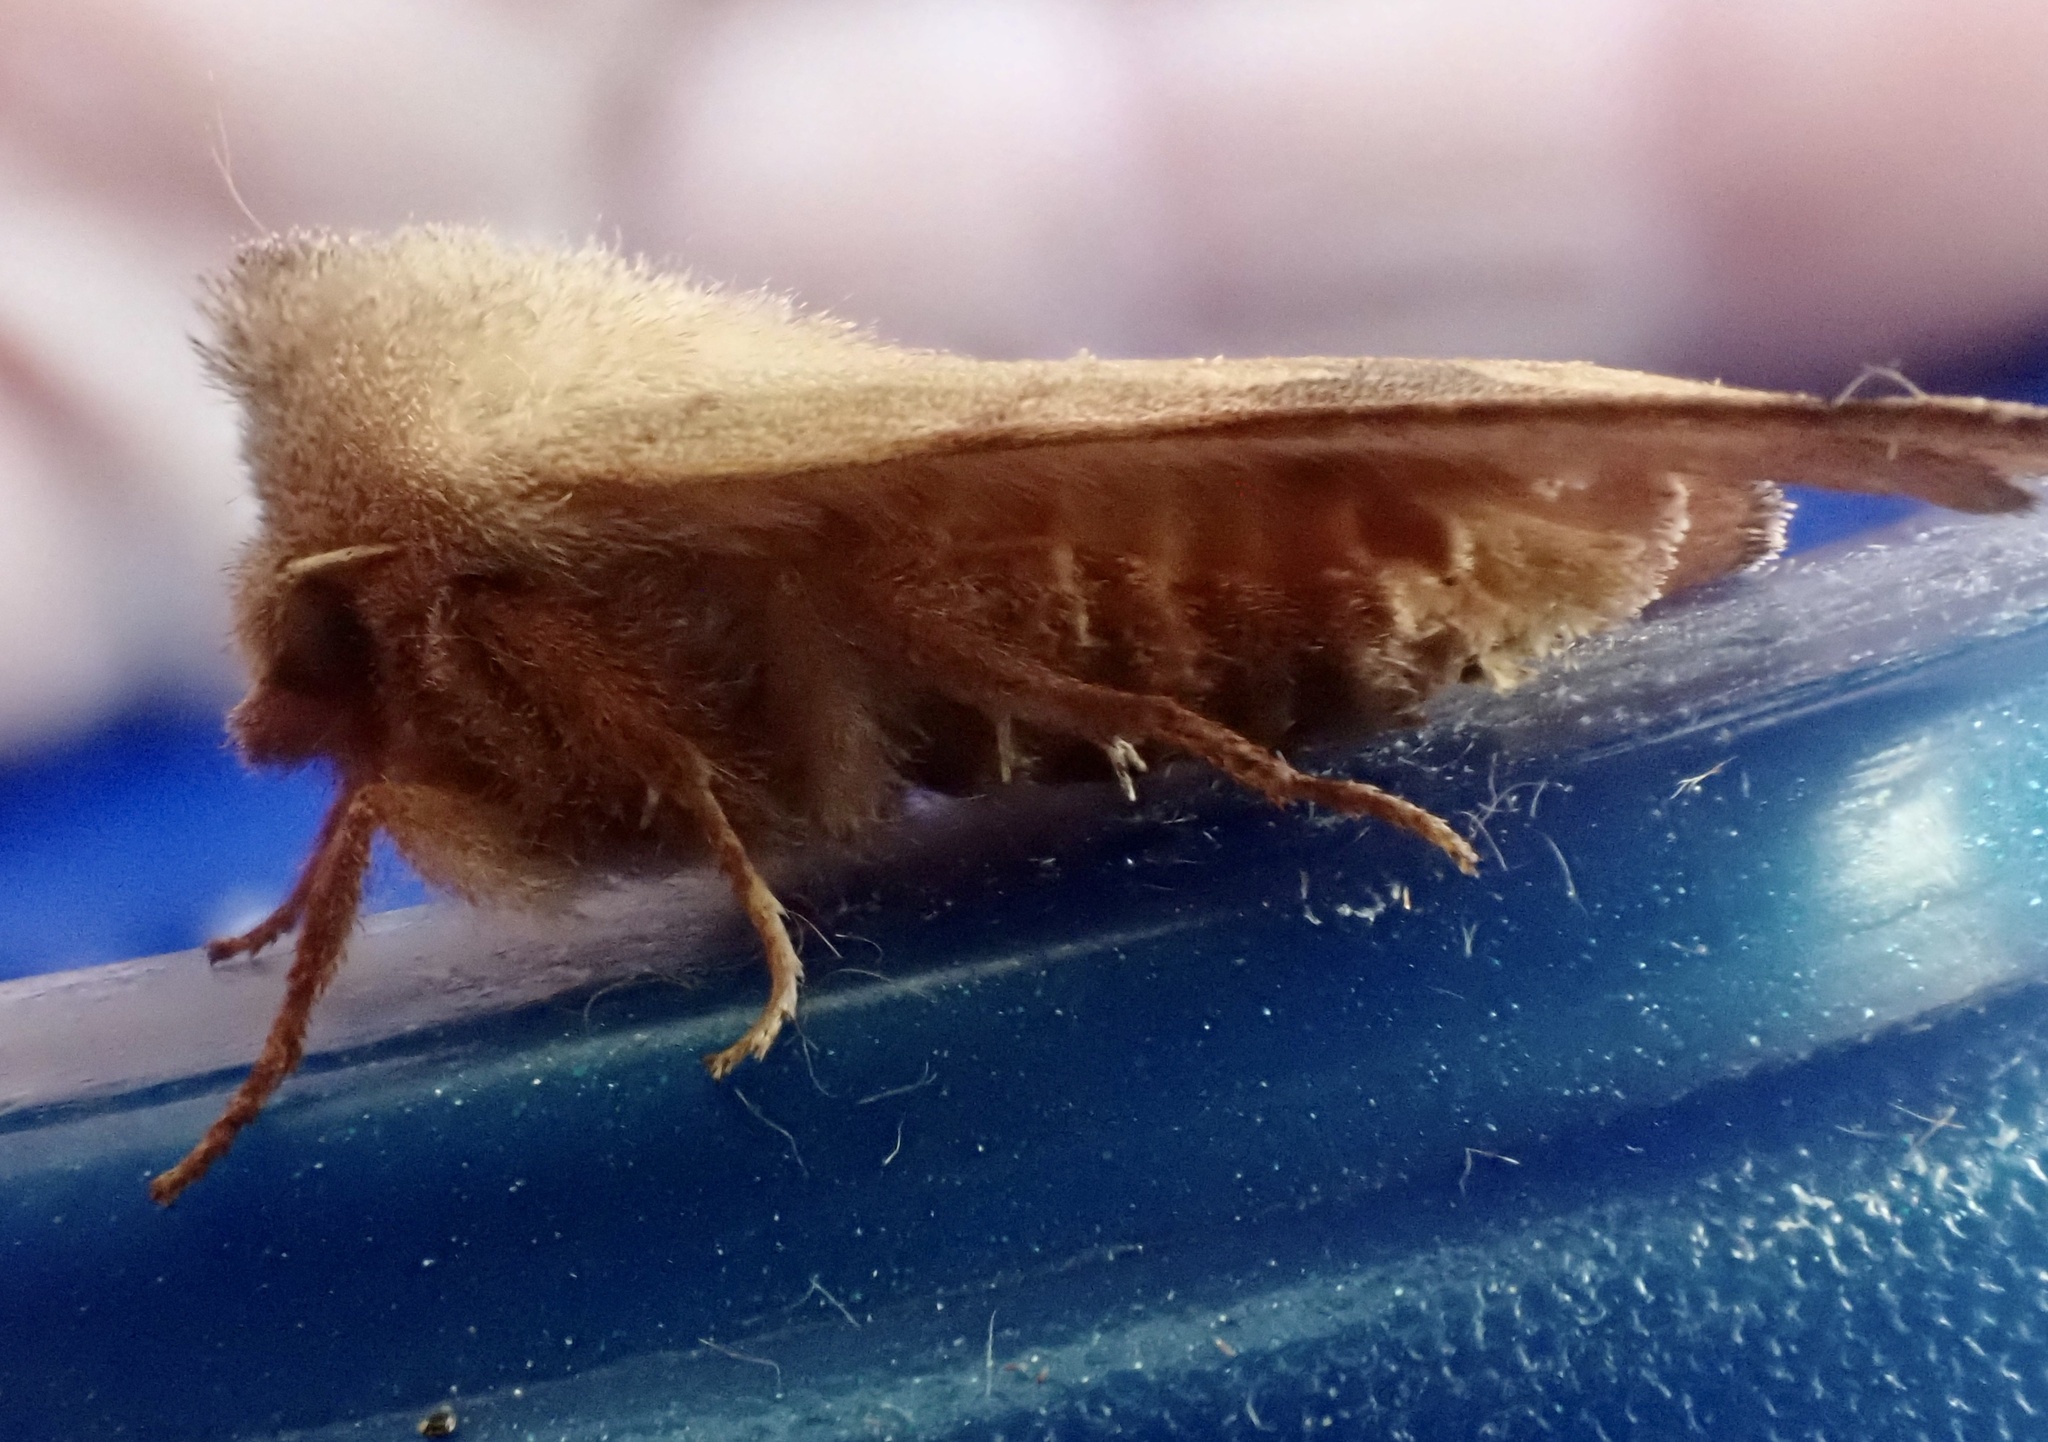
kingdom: Animalia
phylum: Arthropoda
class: Insecta
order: Lepidoptera
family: Noctuidae
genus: Choephora
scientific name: Choephora fungorum
